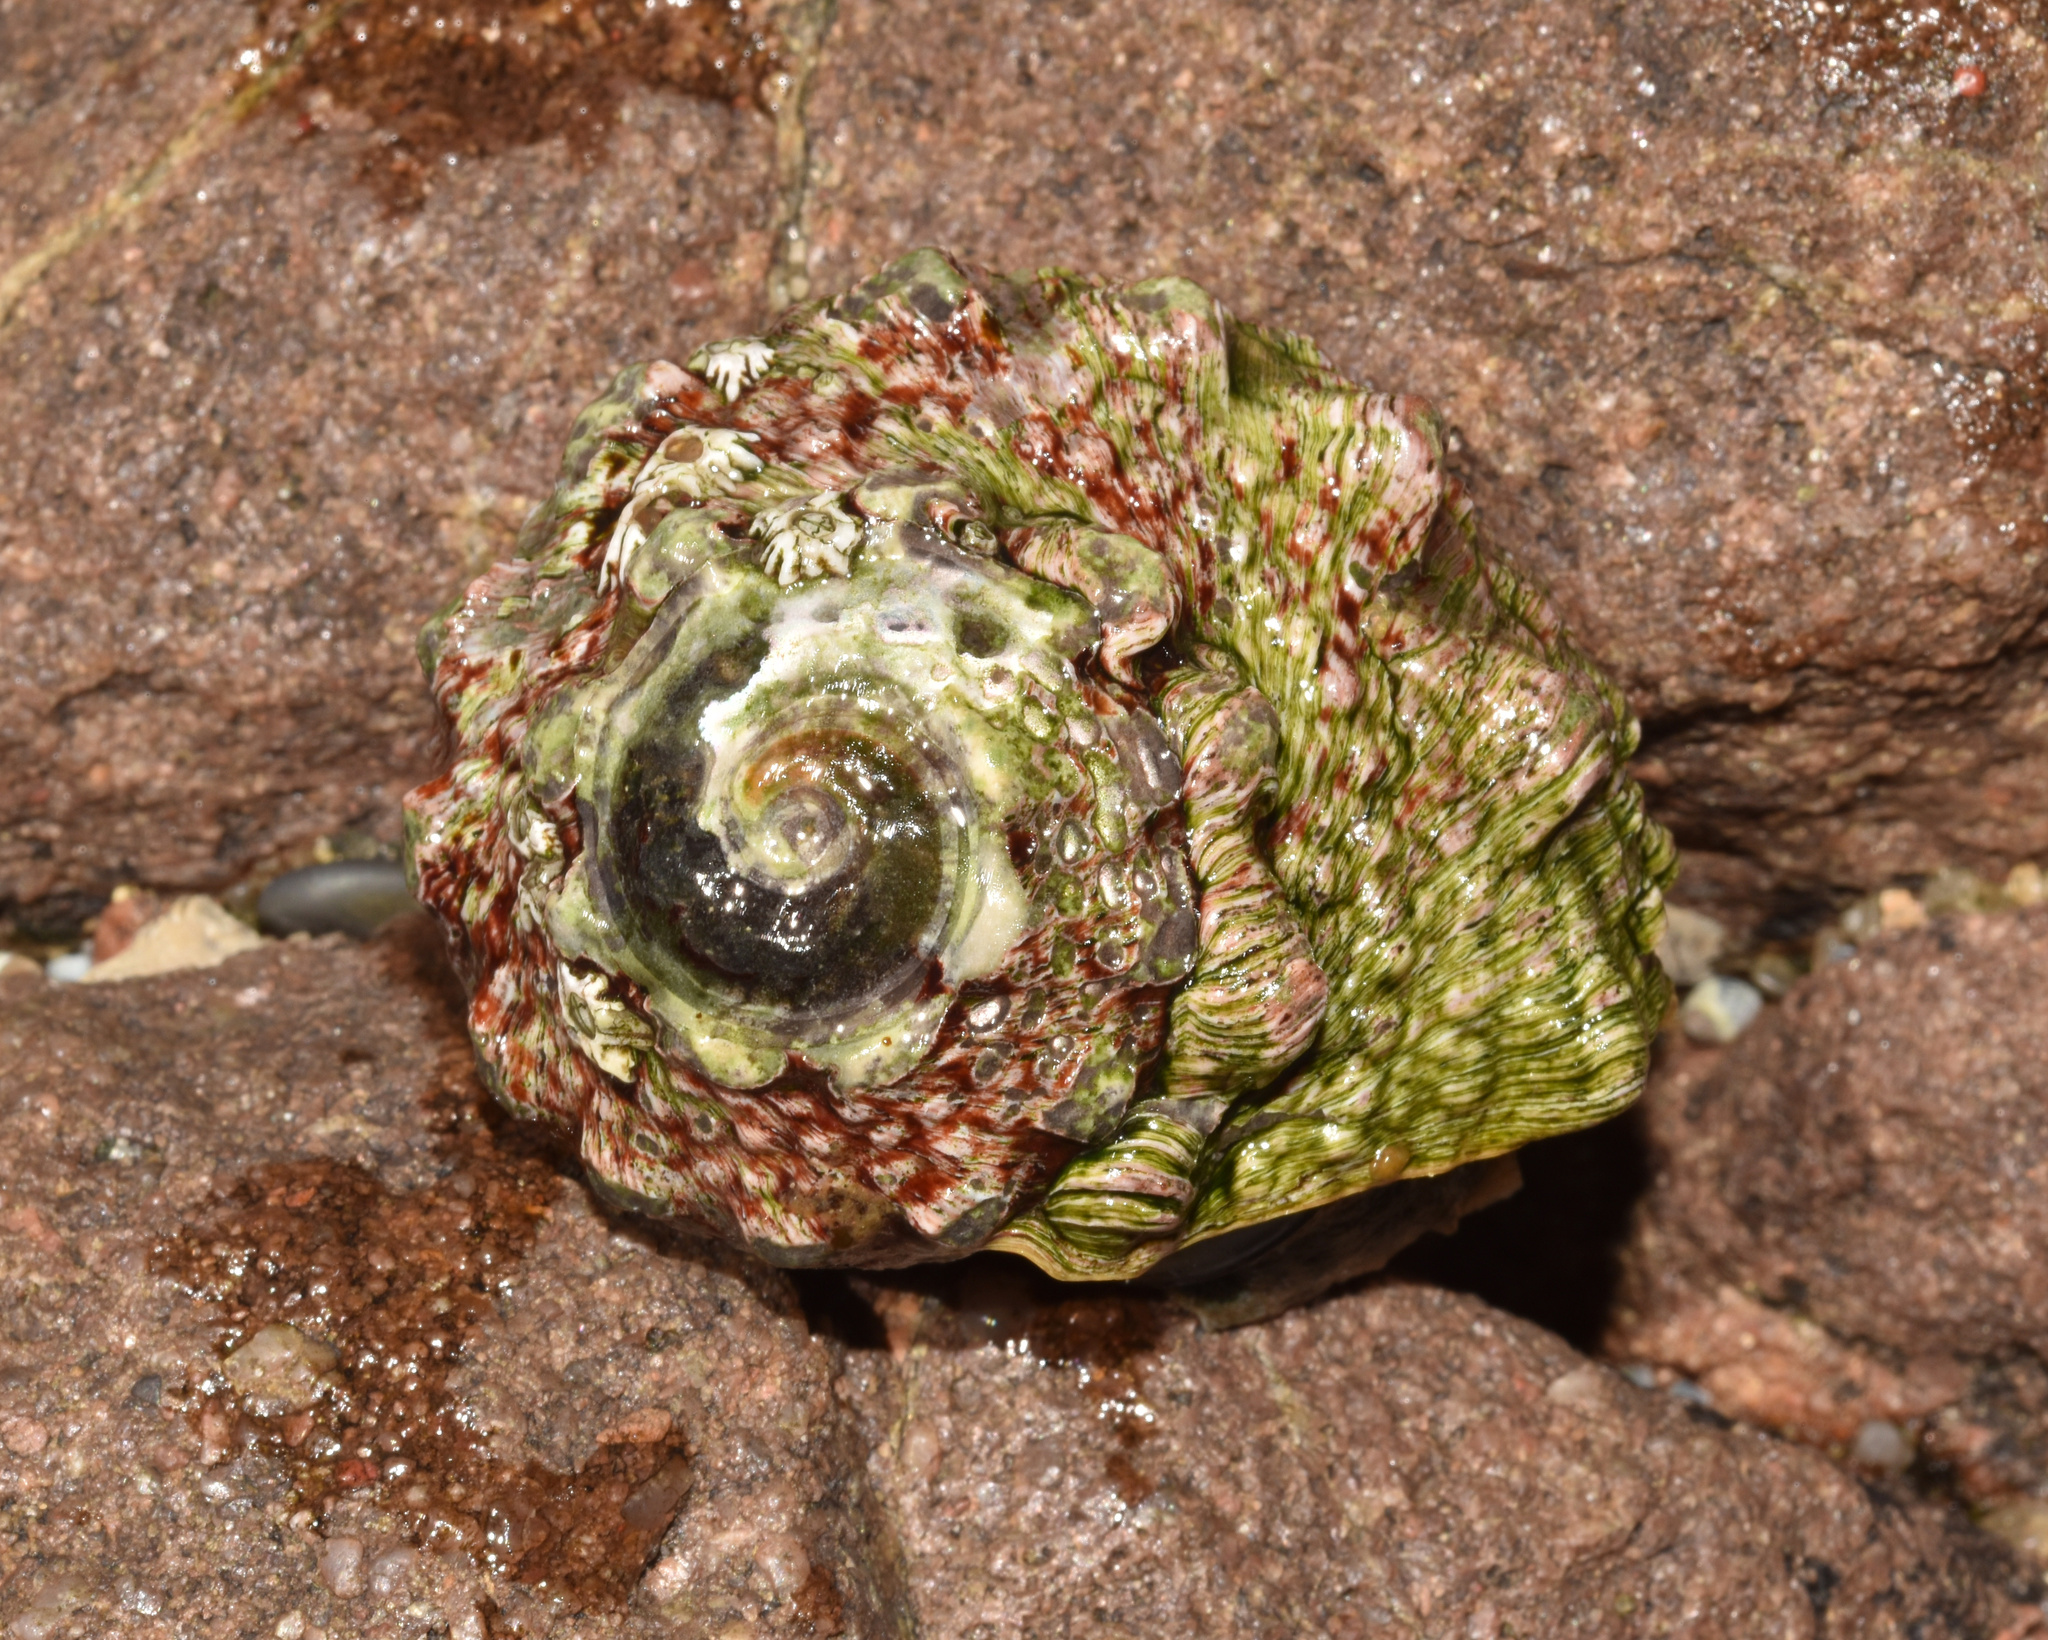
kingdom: Animalia
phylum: Mollusca
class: Gastropoda
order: Trochida
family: Turbinidae
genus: Lunella
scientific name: Lunella coronata
